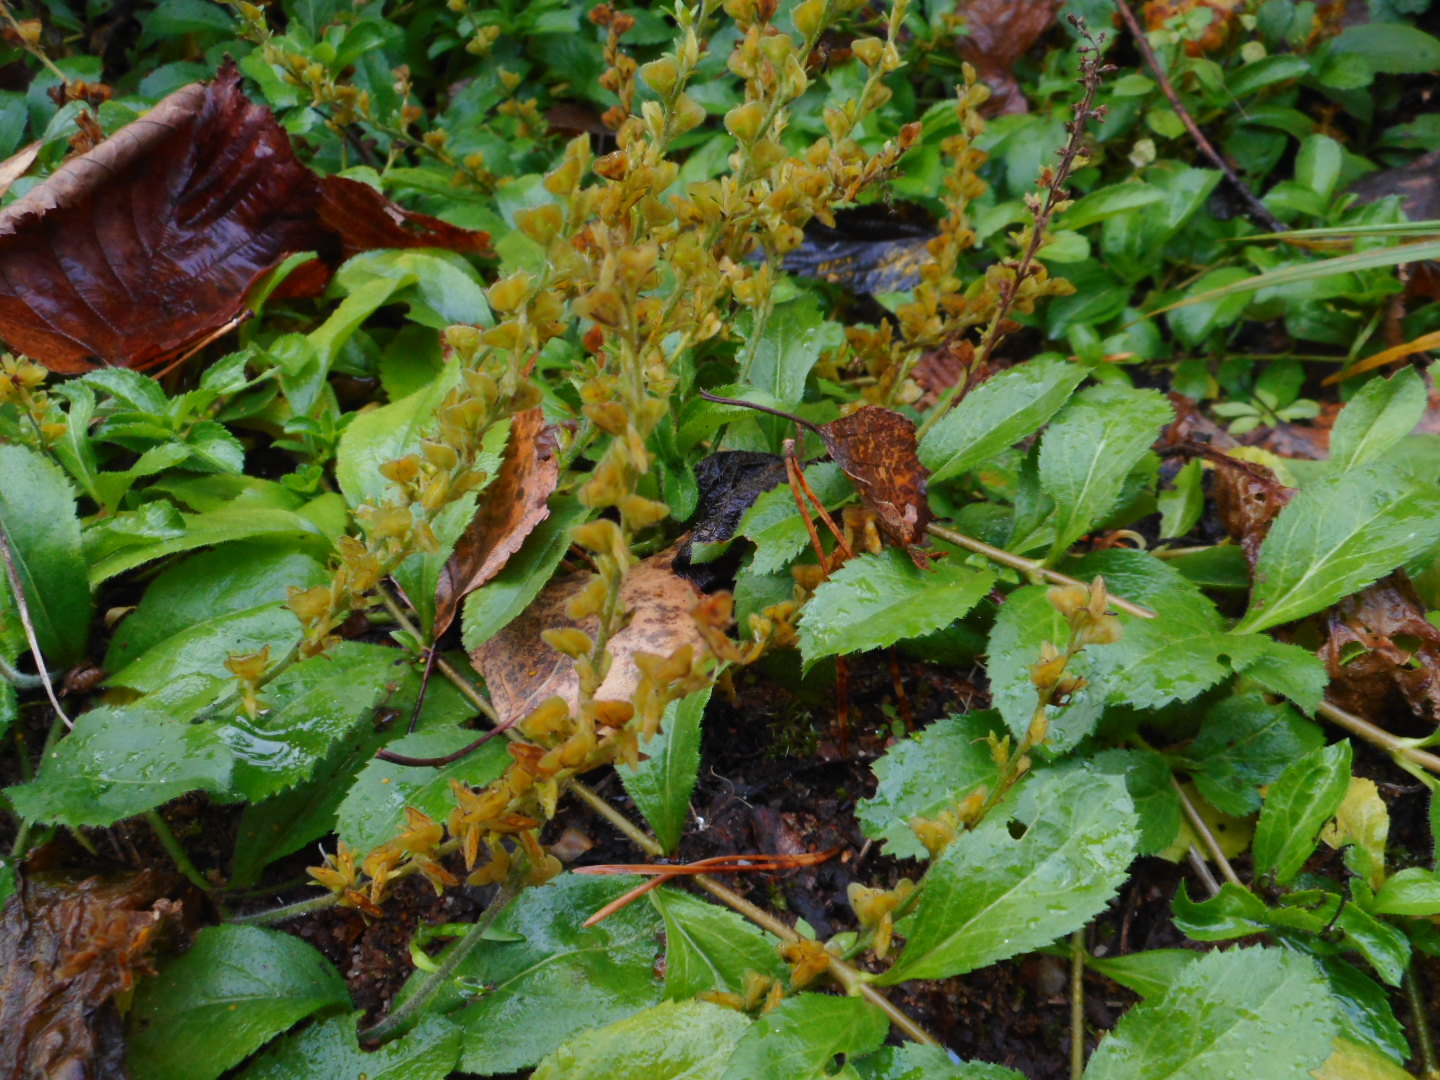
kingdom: Plantae
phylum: Tracheophyta
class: Magnoliopsida
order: Lamiales
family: Plantaginaceae
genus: Veronica
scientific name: Veronica officinalis
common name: Common speedwell
